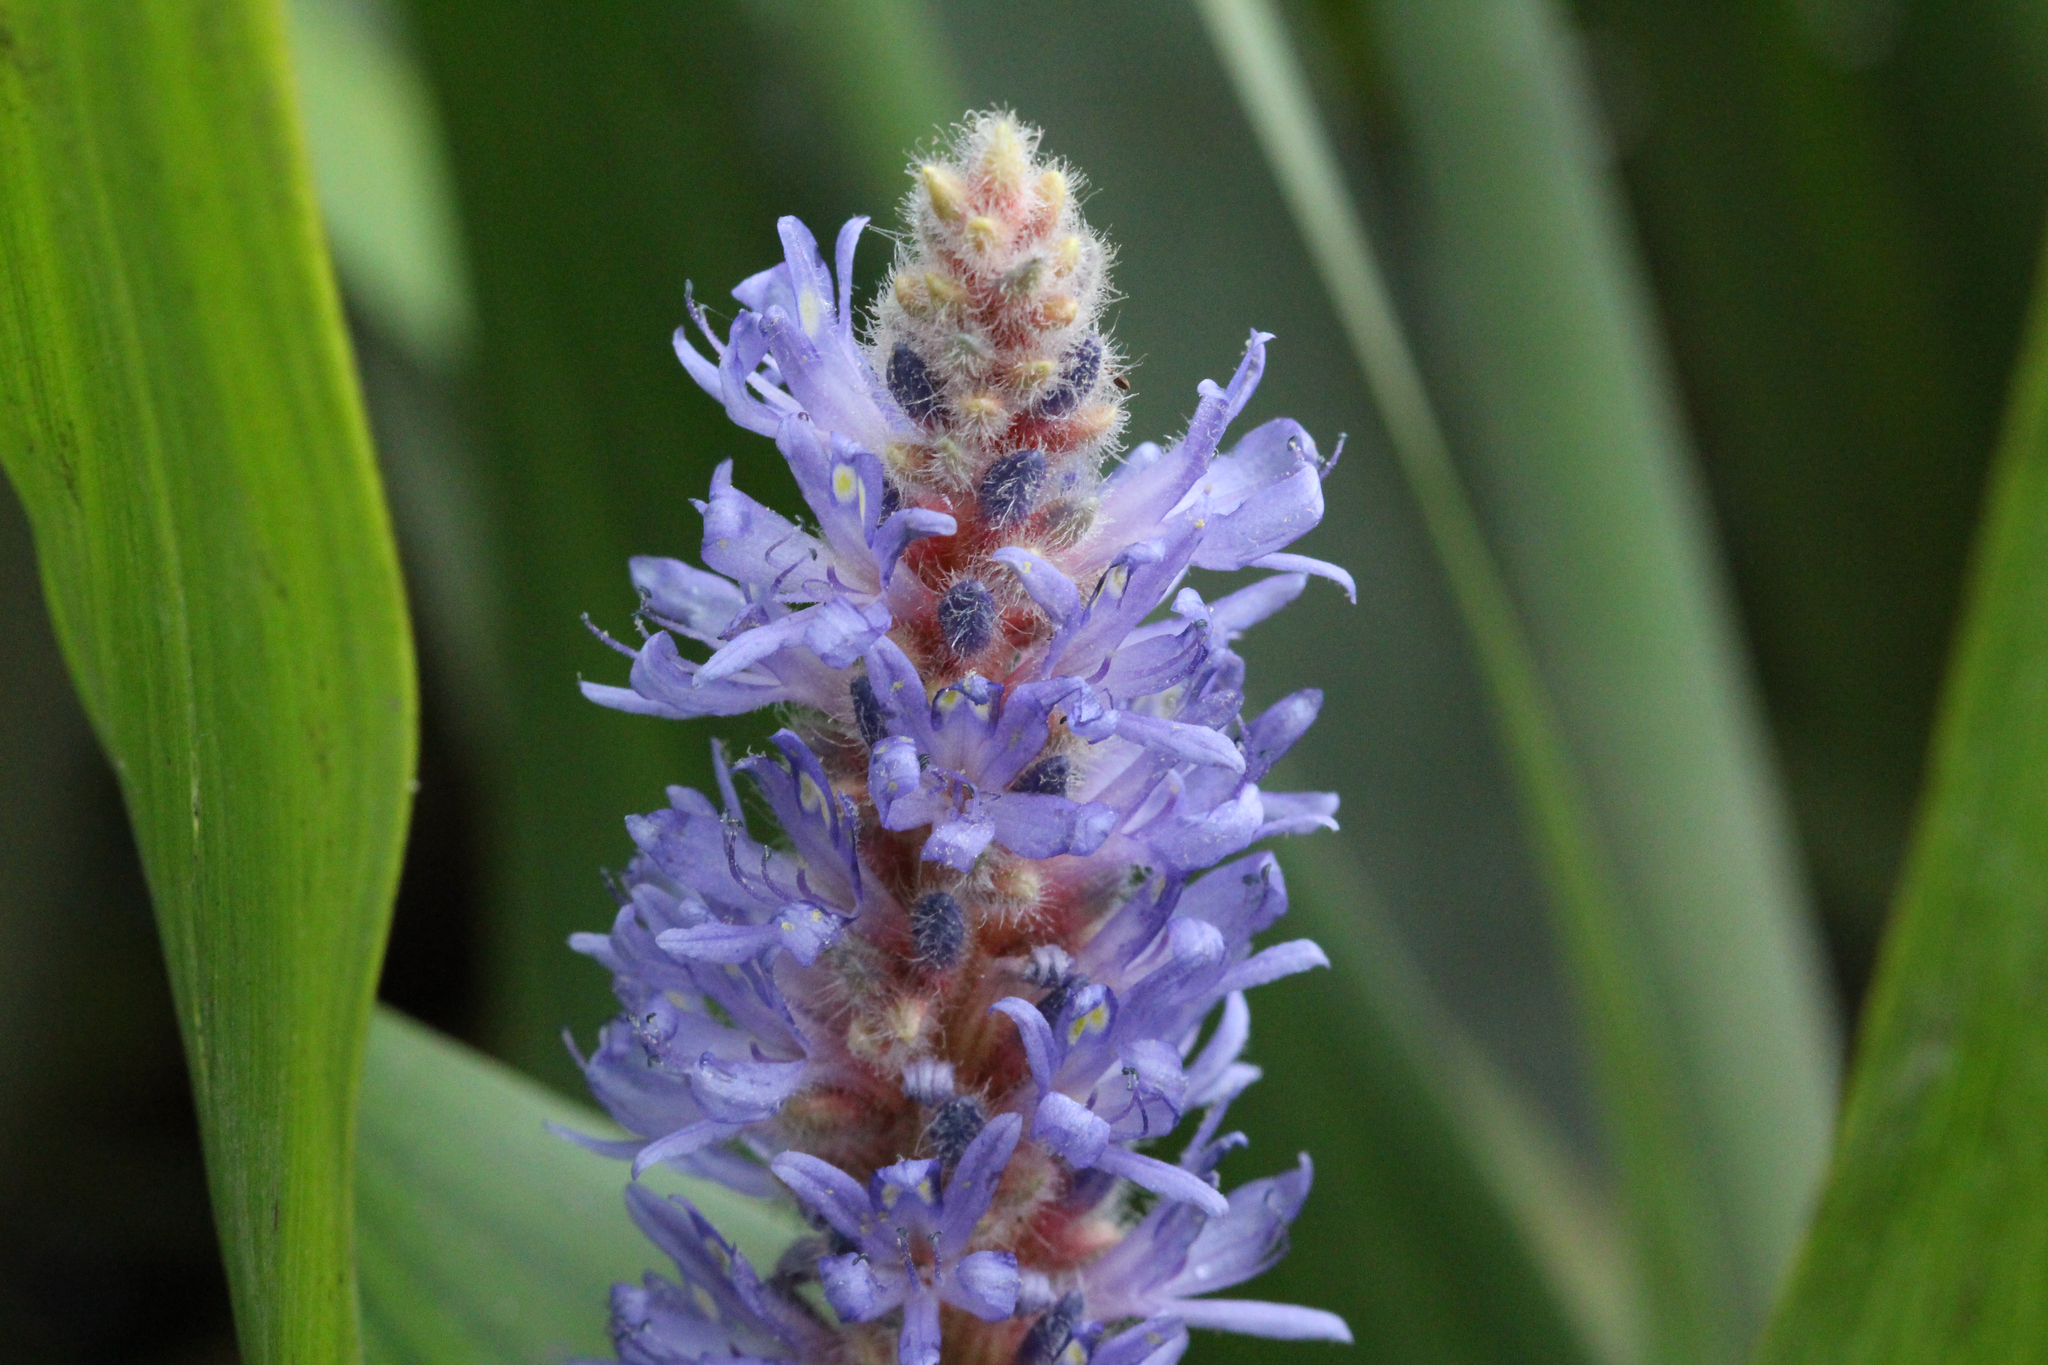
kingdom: Plantae
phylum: Tracheophyta
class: Liliopsida
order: Commelinales
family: Pontederiaceae
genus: Pontederia
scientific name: Pontederia cordata
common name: Pickerelweed
